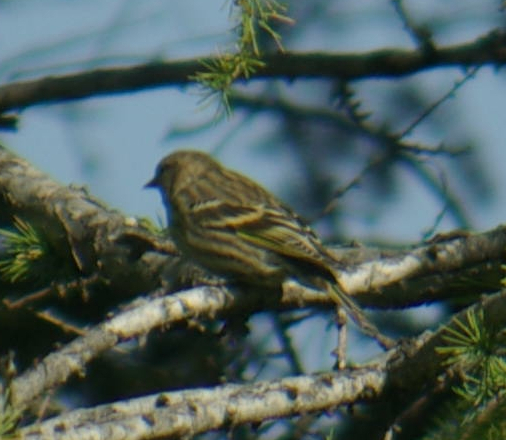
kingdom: Animalia
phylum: Chordata
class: Aves
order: Passeriformes
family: Fringillidae
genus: Spinus
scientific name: Spinus pinus
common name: Pine siskin
